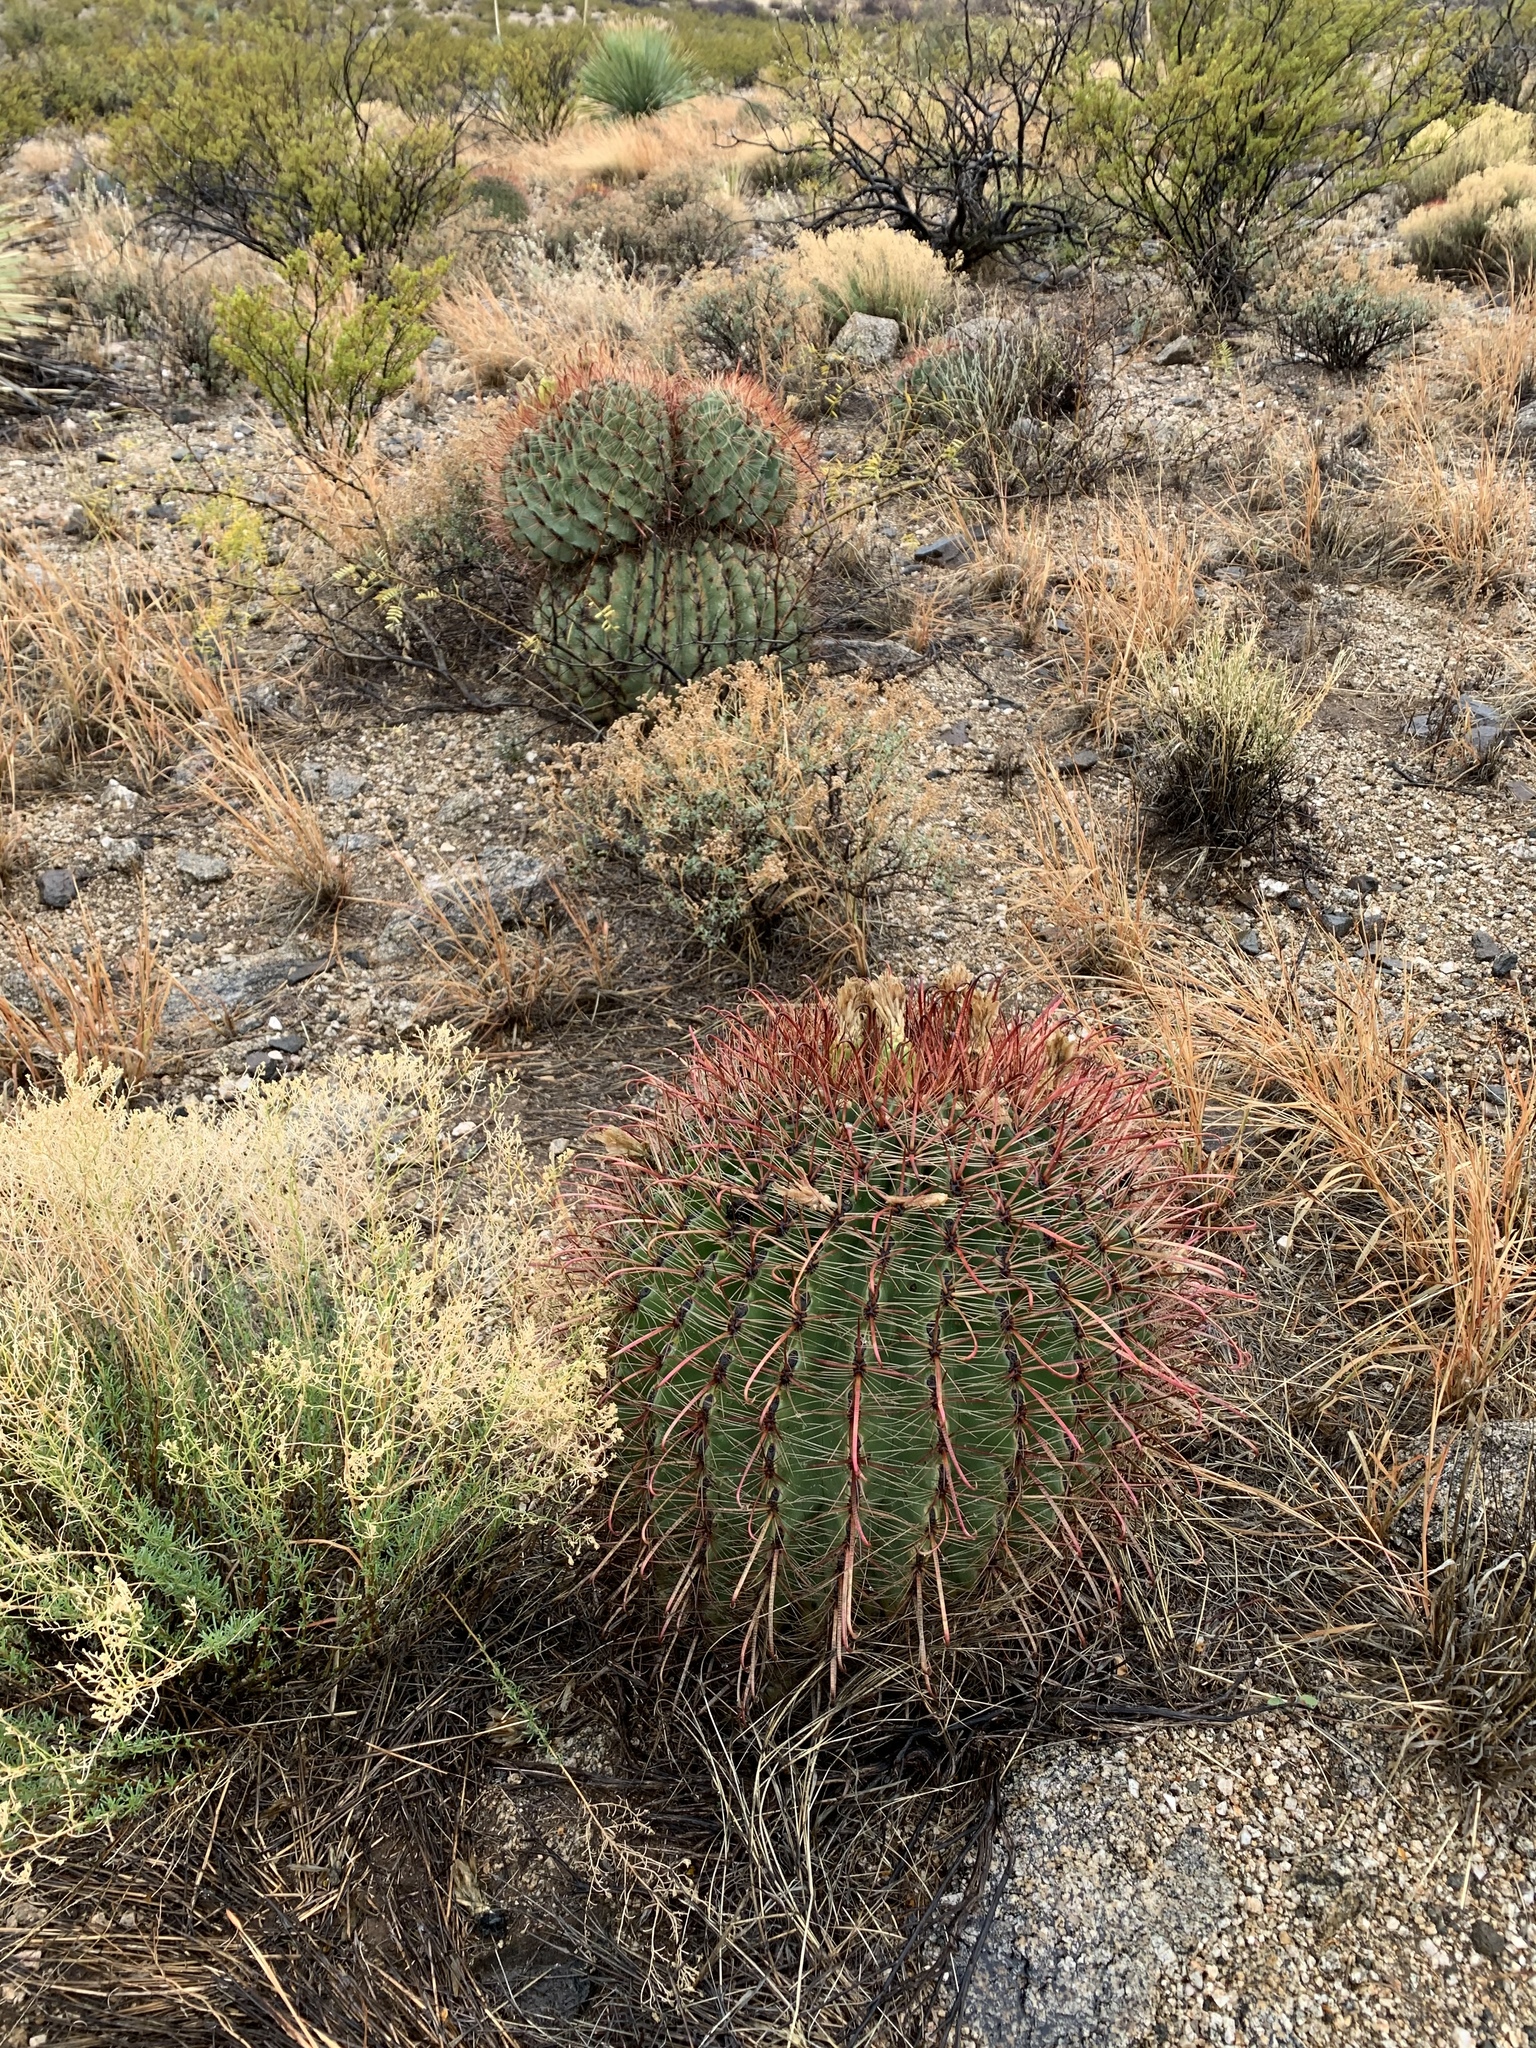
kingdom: Plantae
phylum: Tracheophyta
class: Magnoliopsida
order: Caryophyllales
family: Cactaceae
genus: Ferocactus
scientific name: Ferocactus wislizeni
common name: Candy barrel cactus
